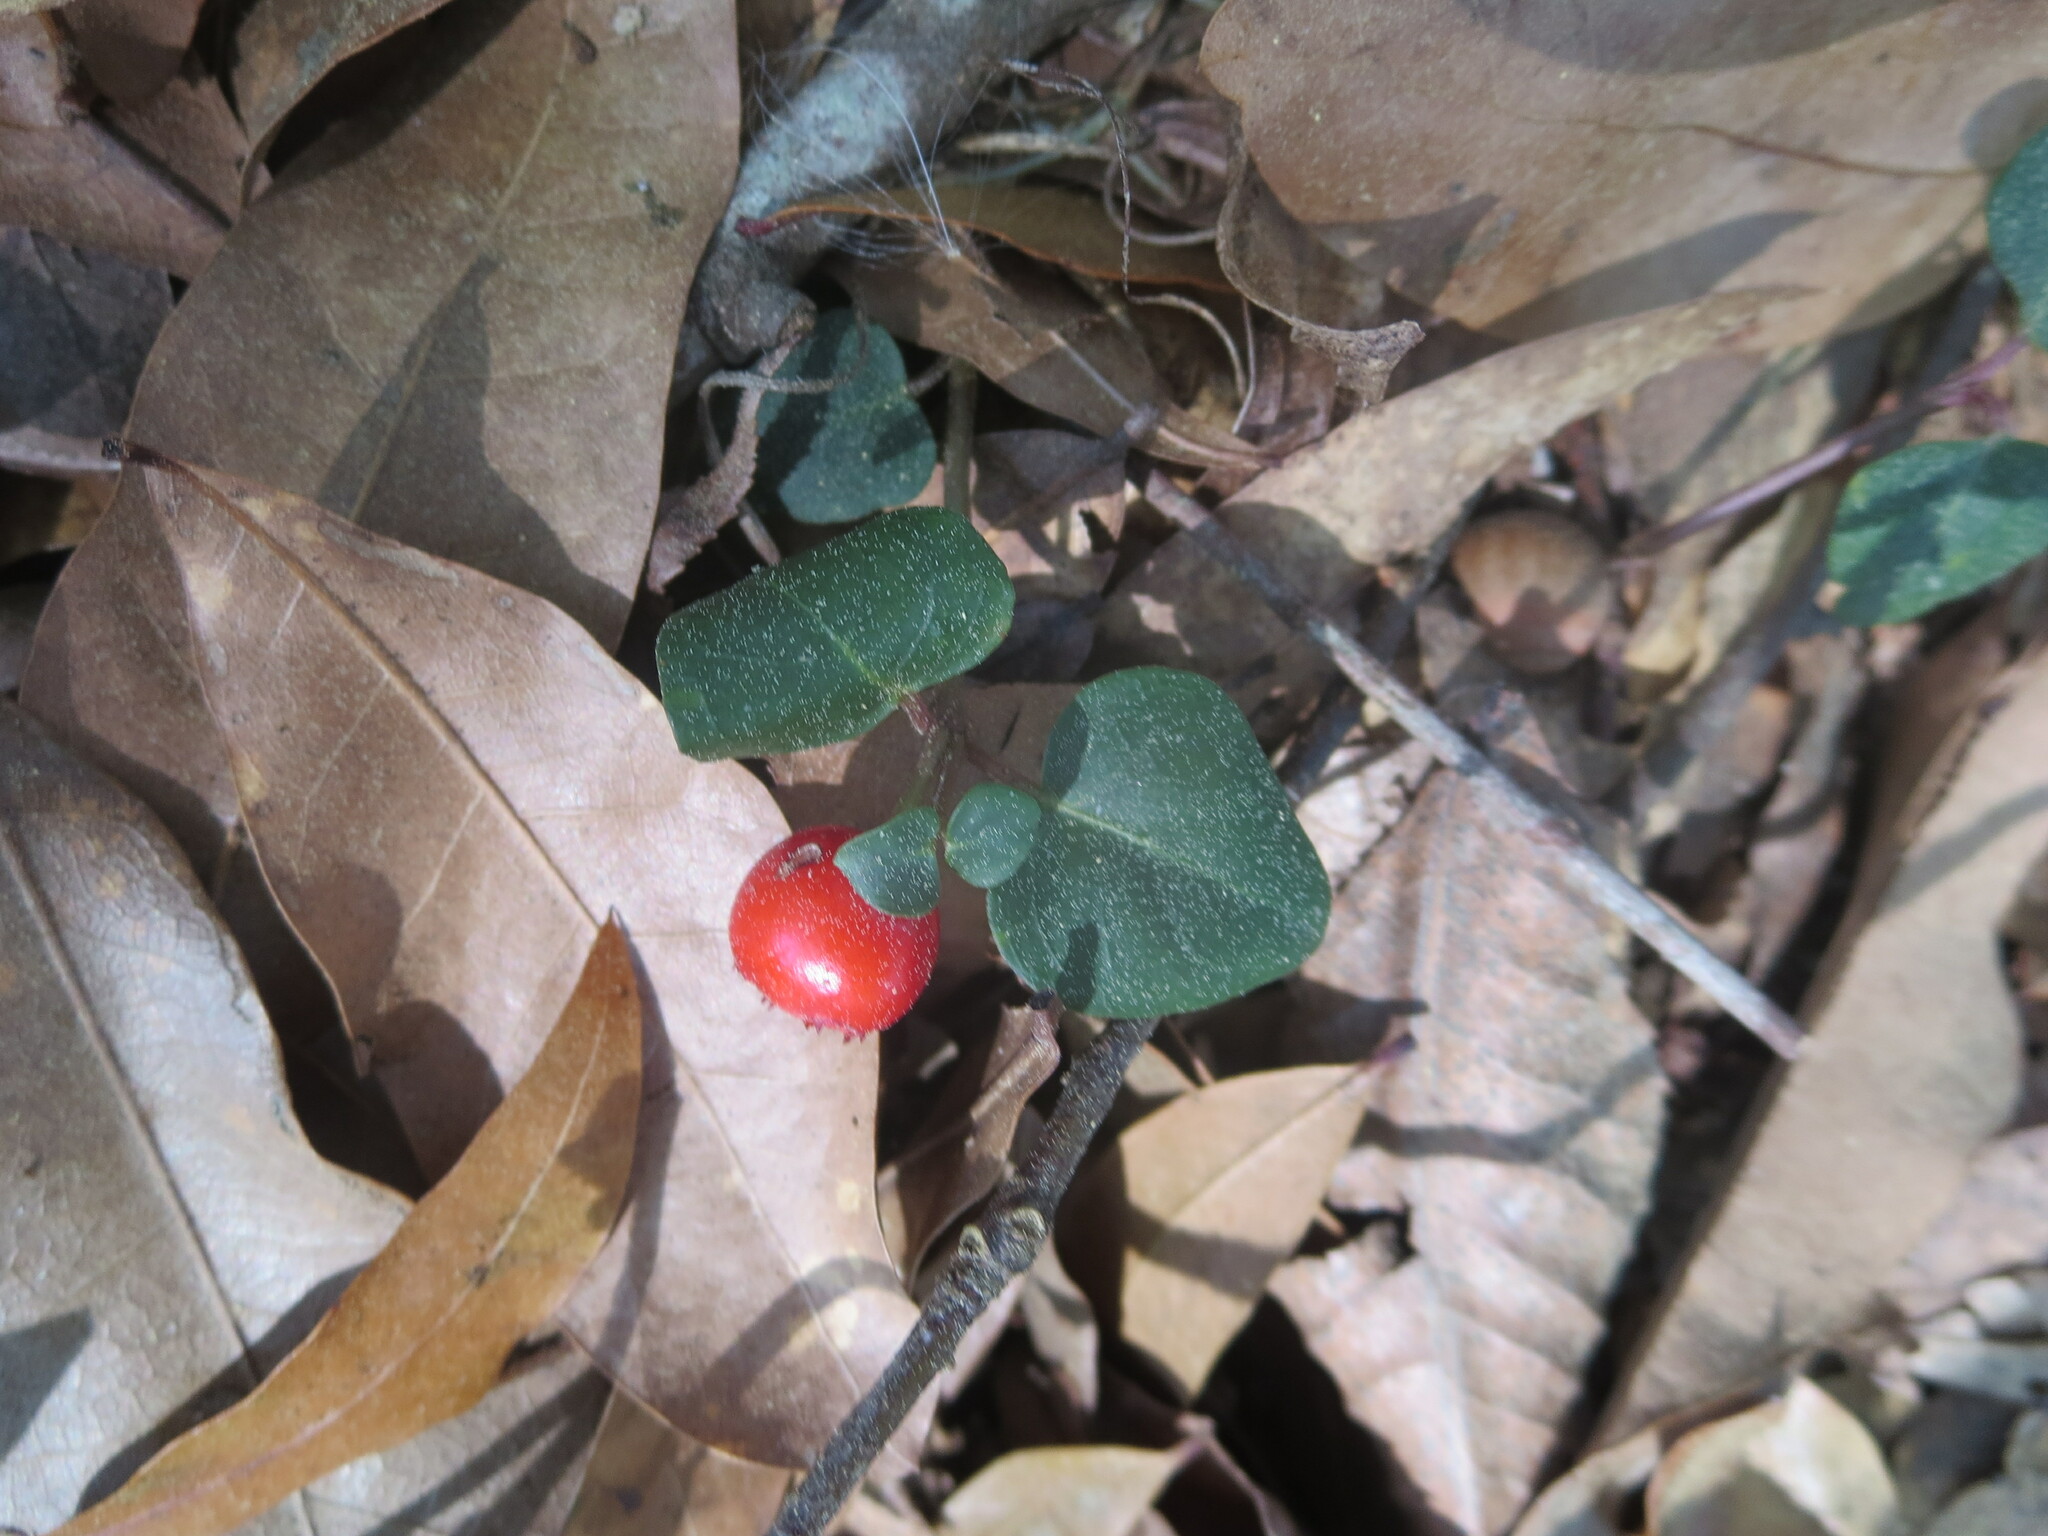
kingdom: Plantae
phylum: Tracheophyta
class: Magnoliopsida
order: Gentianales
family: Rubiaceae
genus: Mitchella
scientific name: Mitchella repens
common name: Partridge-berry
